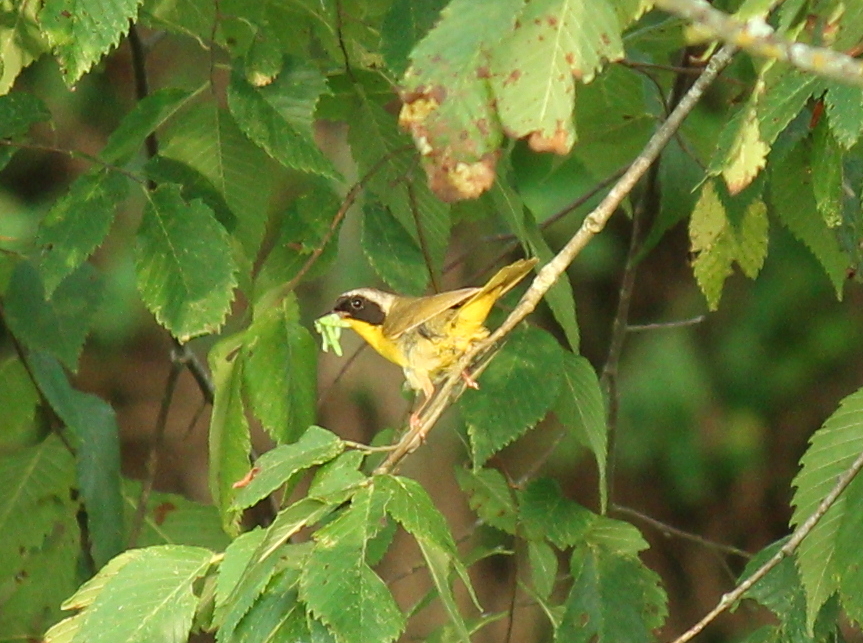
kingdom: Animalia
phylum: Chordata
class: Aves
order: Passeriformes
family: Parulidae
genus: Geothlypis
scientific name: Geothlypis trichas
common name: Common yellowthroat
